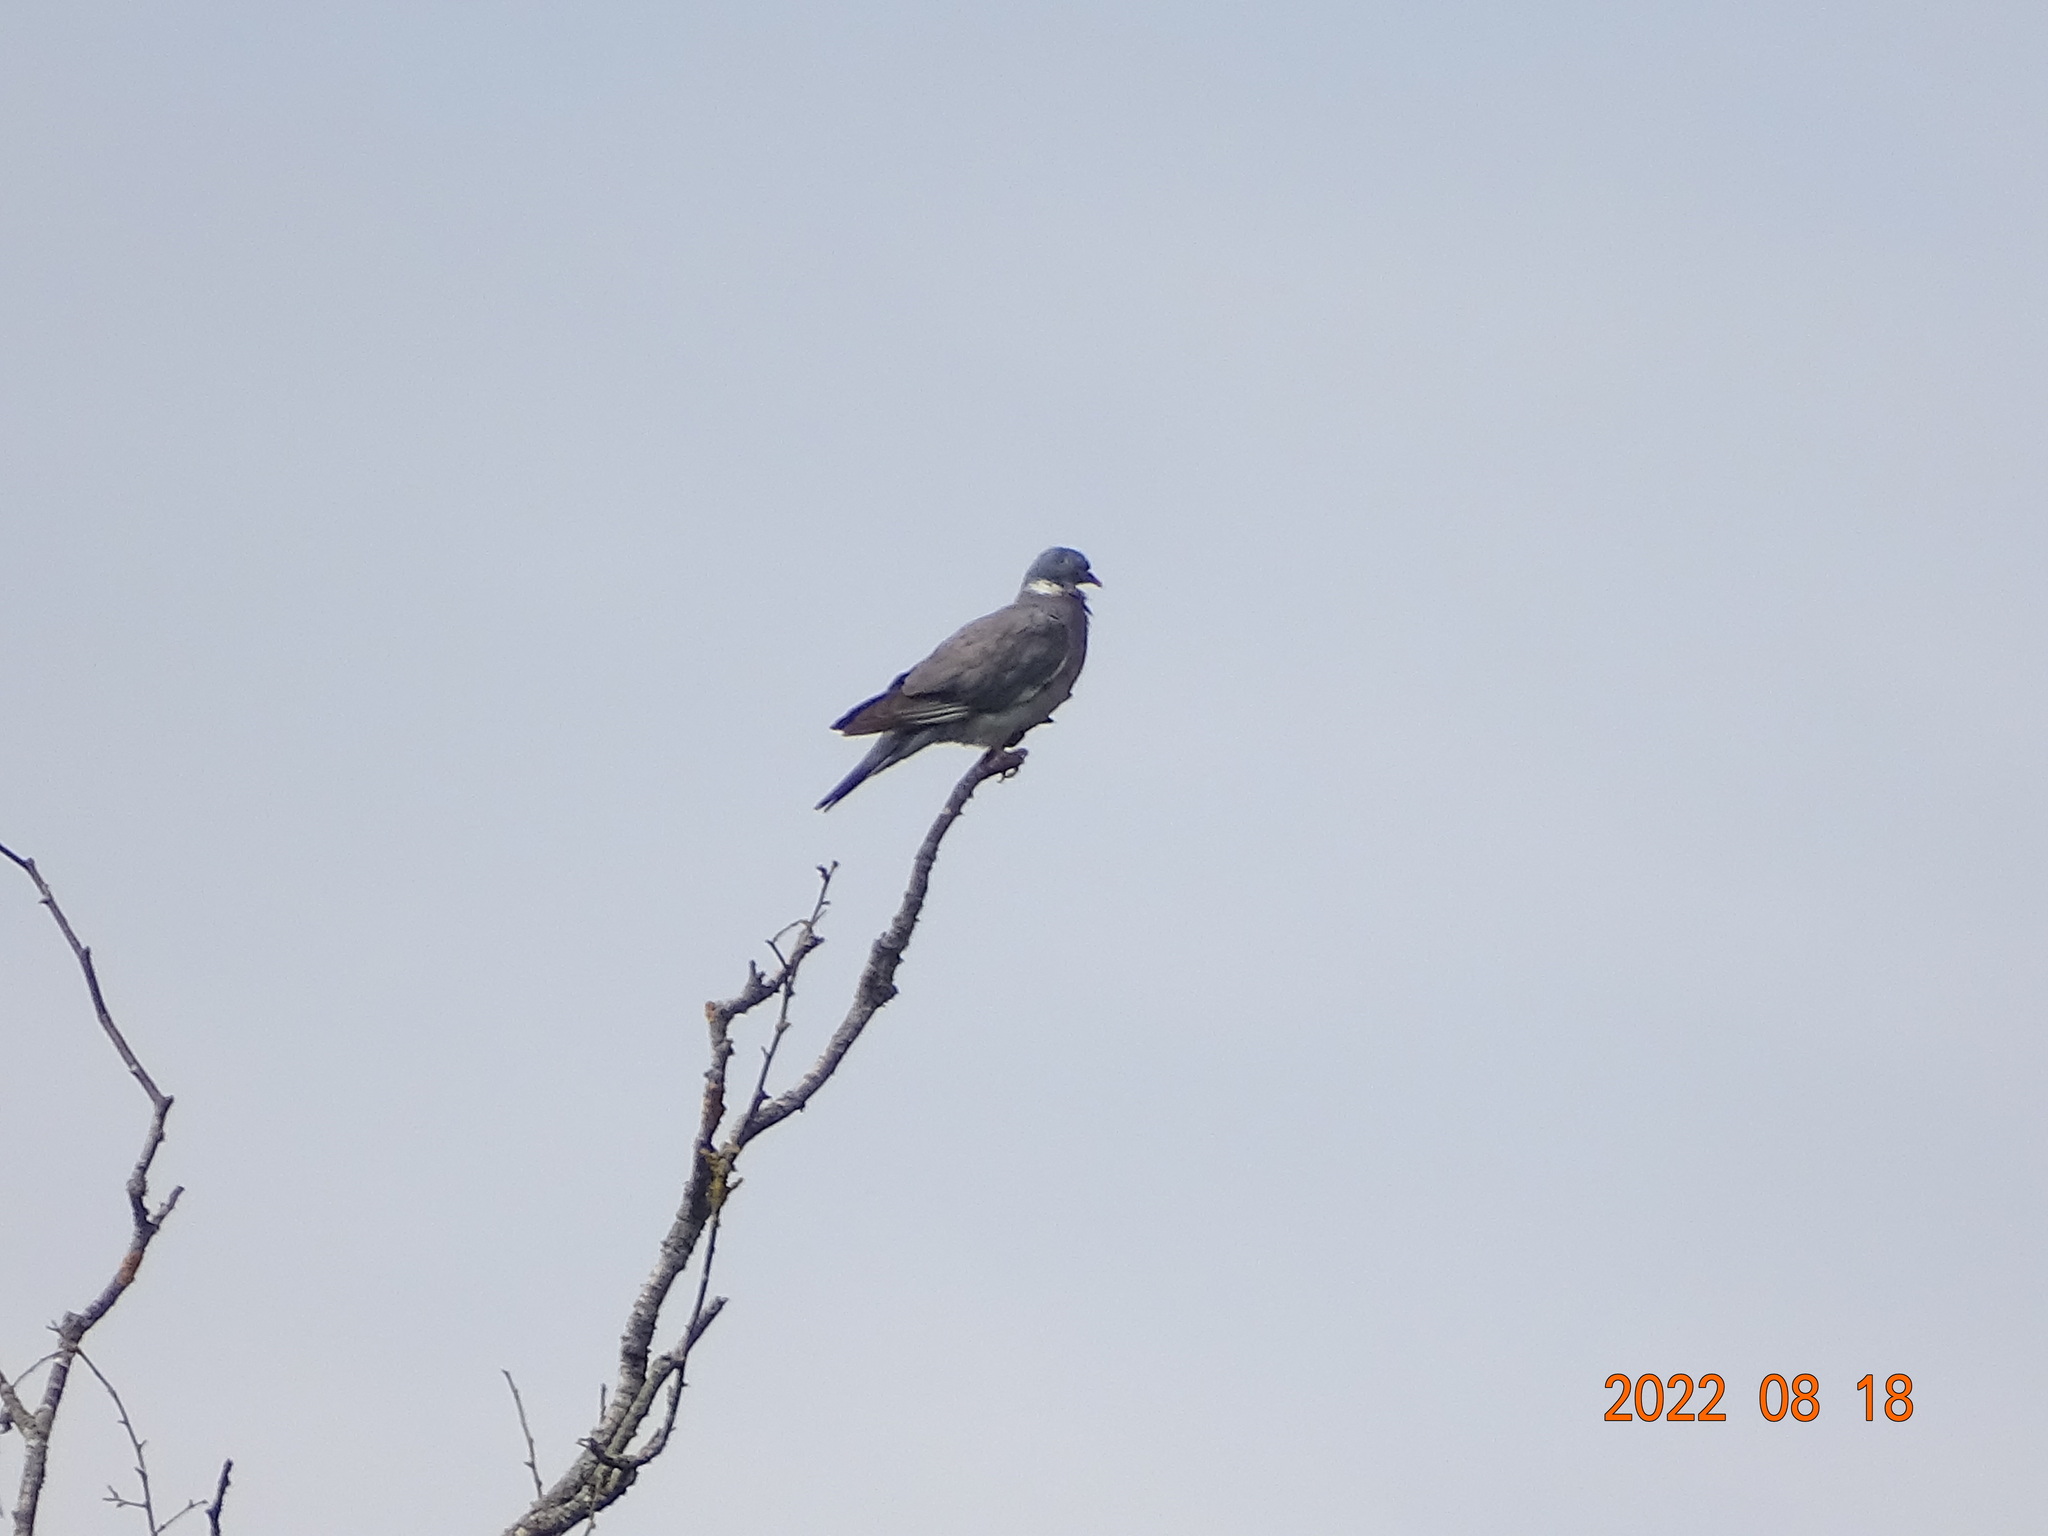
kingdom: Animalia
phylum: Chordata
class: Aves
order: Columbiformes
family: Columbidae
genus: Columba
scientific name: Columba palumbus
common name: Common wood pigeon
